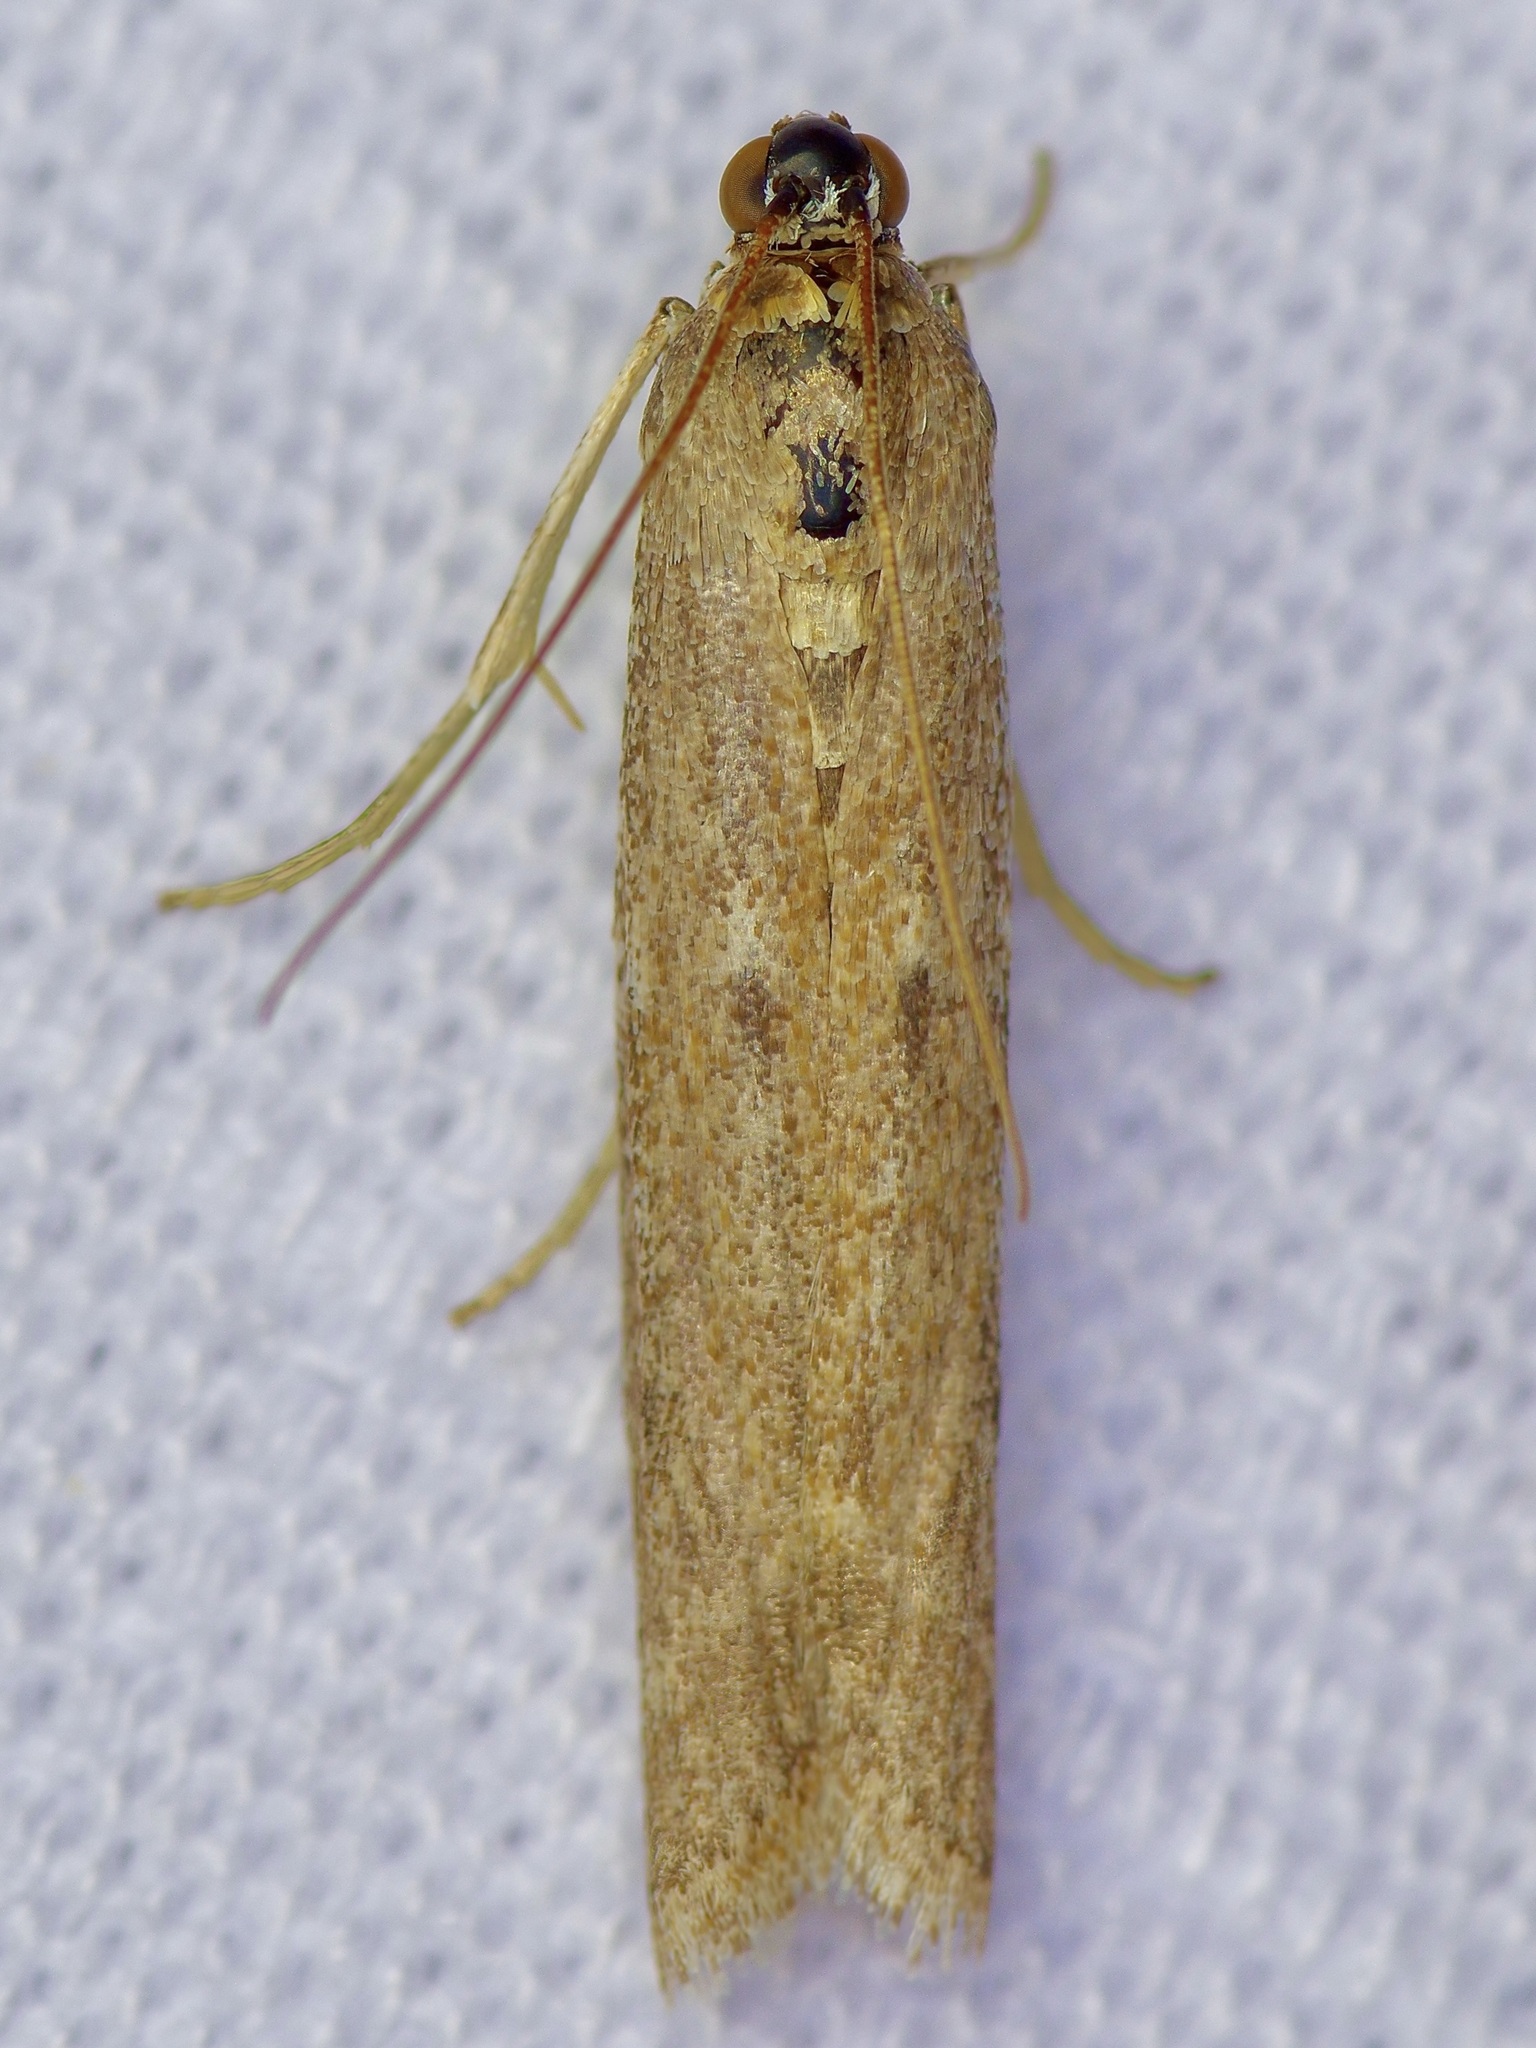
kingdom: Animalia
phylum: Arthropoda
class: Insecta
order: Lepidoptera
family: Pyralidae
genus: Homoeosoma
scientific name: Homoeosoma electella
